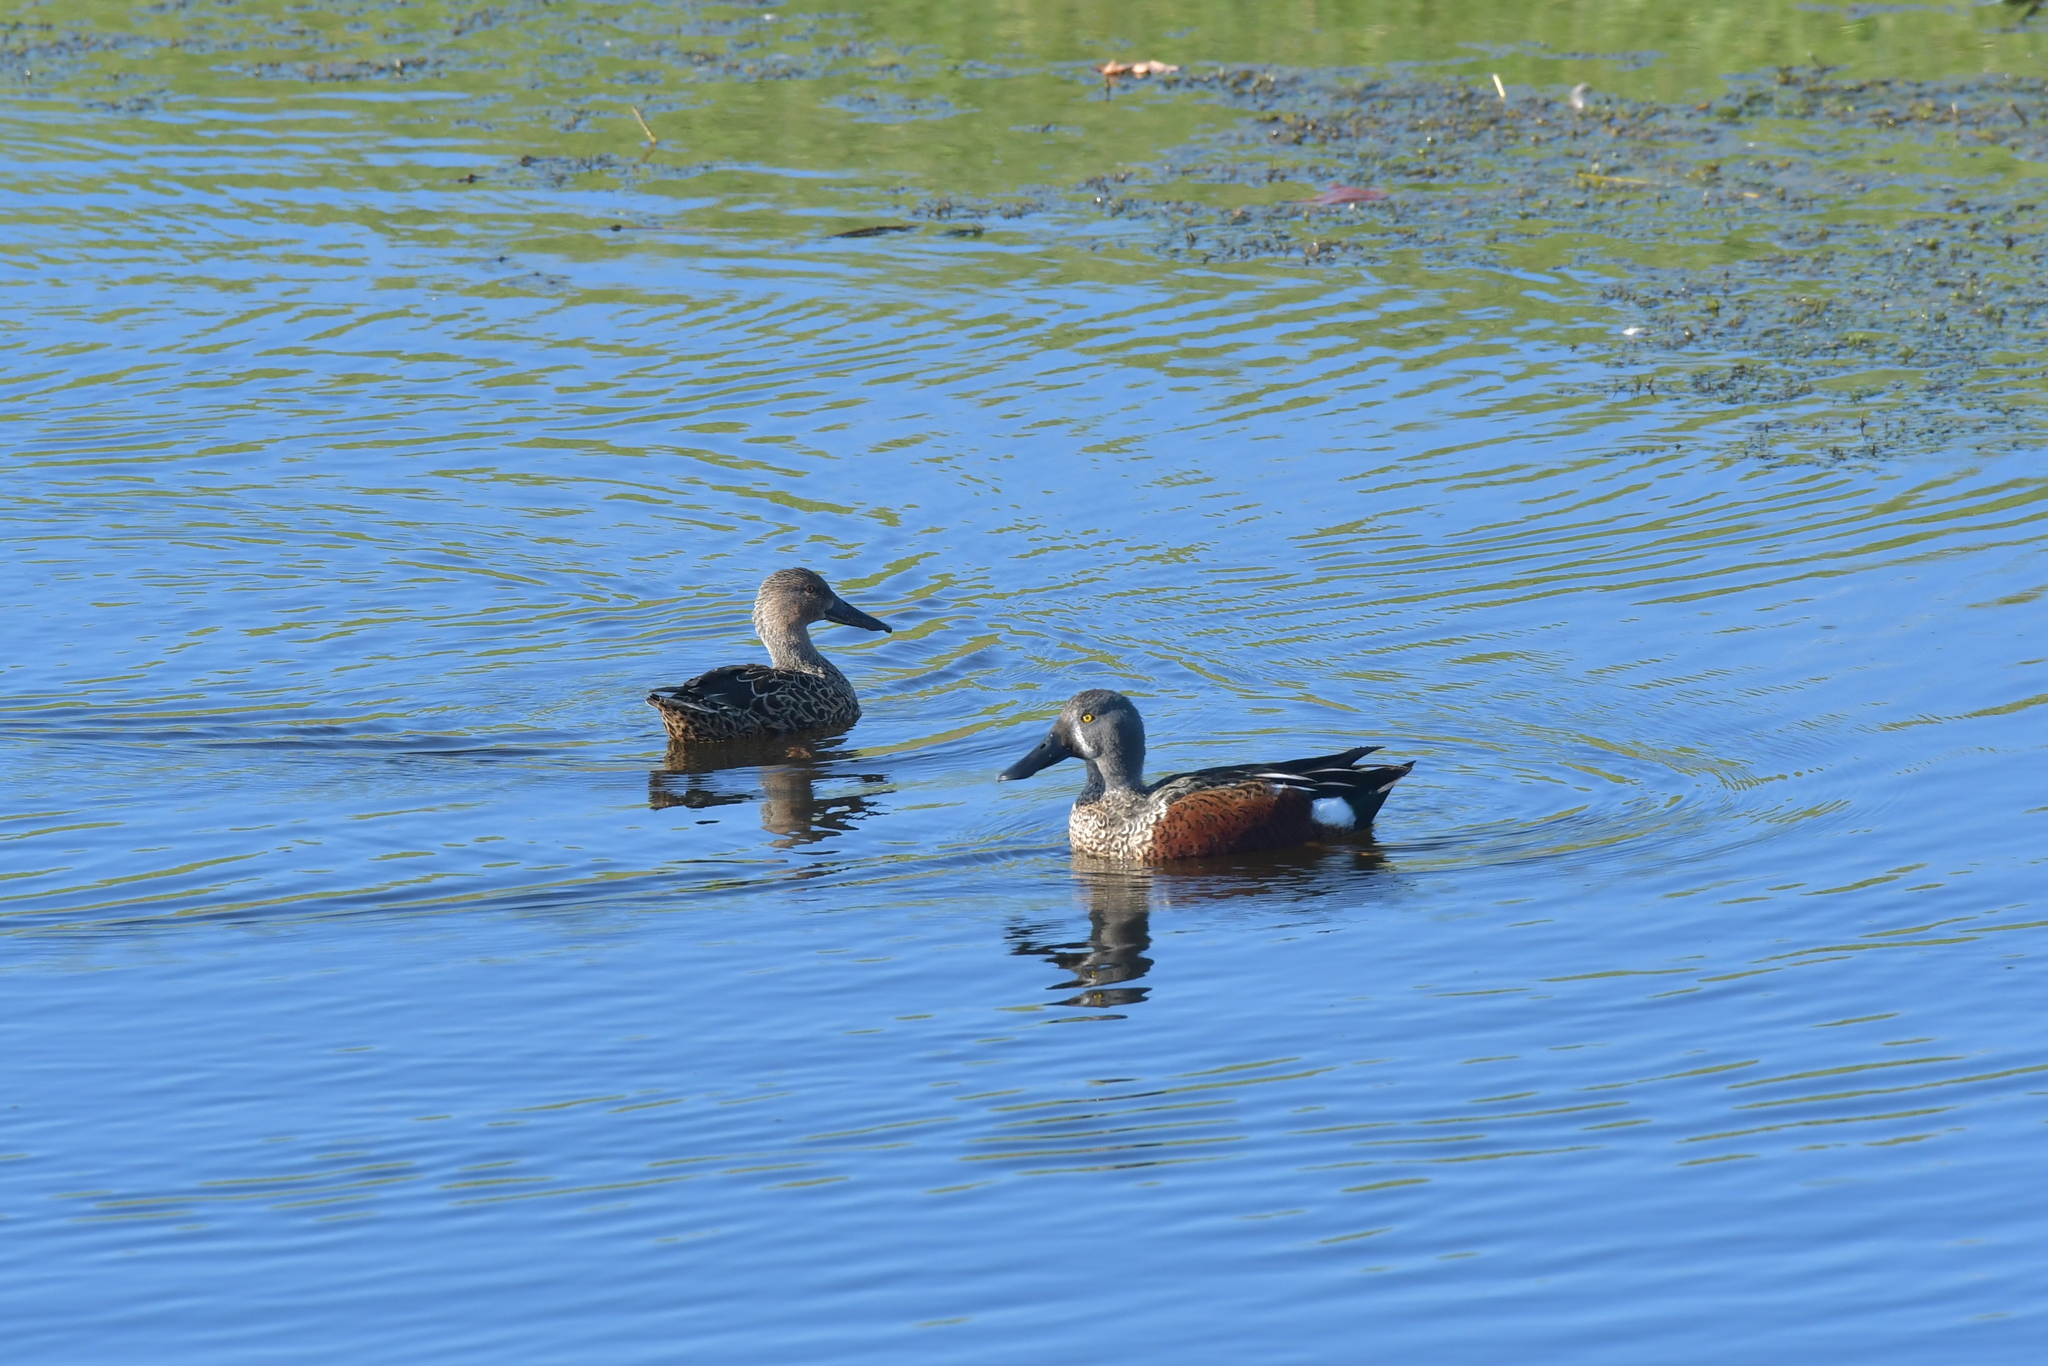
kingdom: Animalia
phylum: Chordata
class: Aves
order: Anseriformes
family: Anatidae
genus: Spatula
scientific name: Spatula rhynchotis
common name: Australian shoveler
